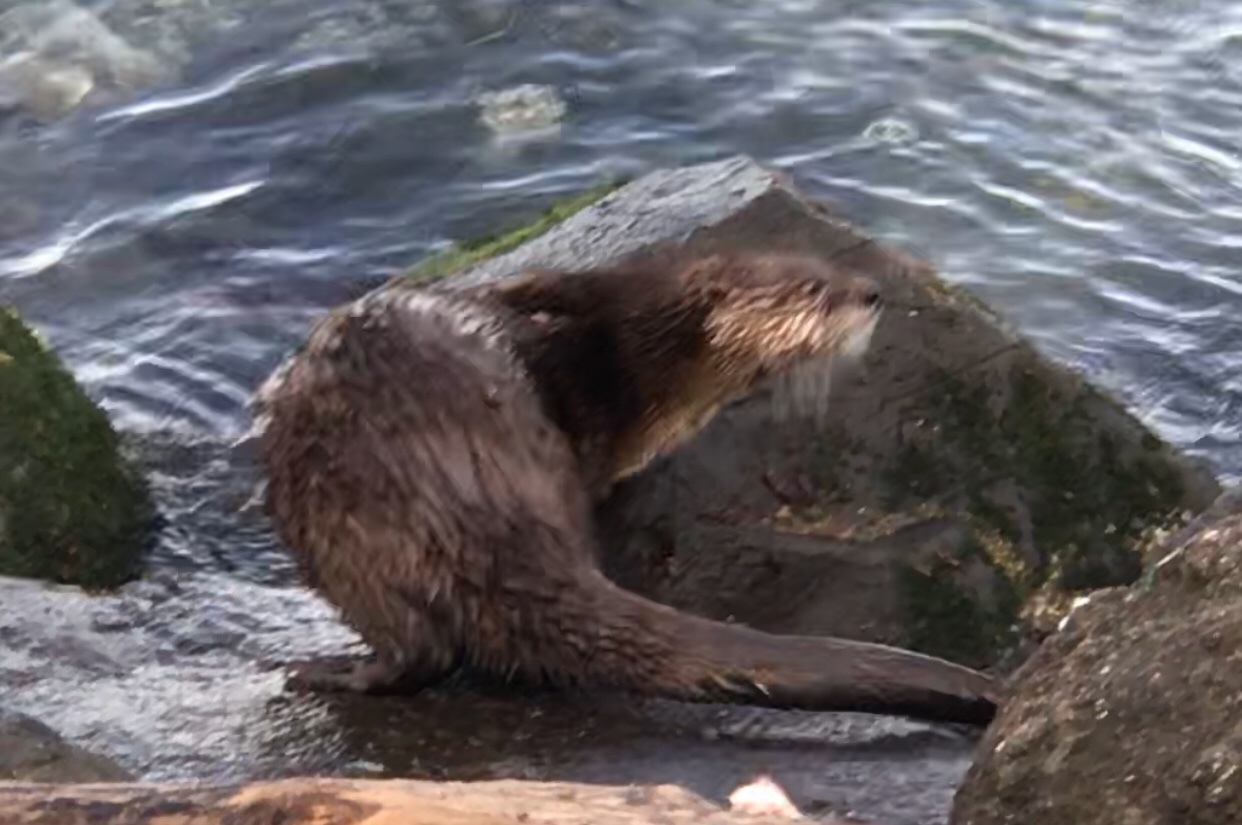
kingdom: Animalia
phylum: Chordata
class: Mammalia
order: Carnivora
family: Mustelidae
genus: Lontra
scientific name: Lontra canadensis
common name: North american river otter
